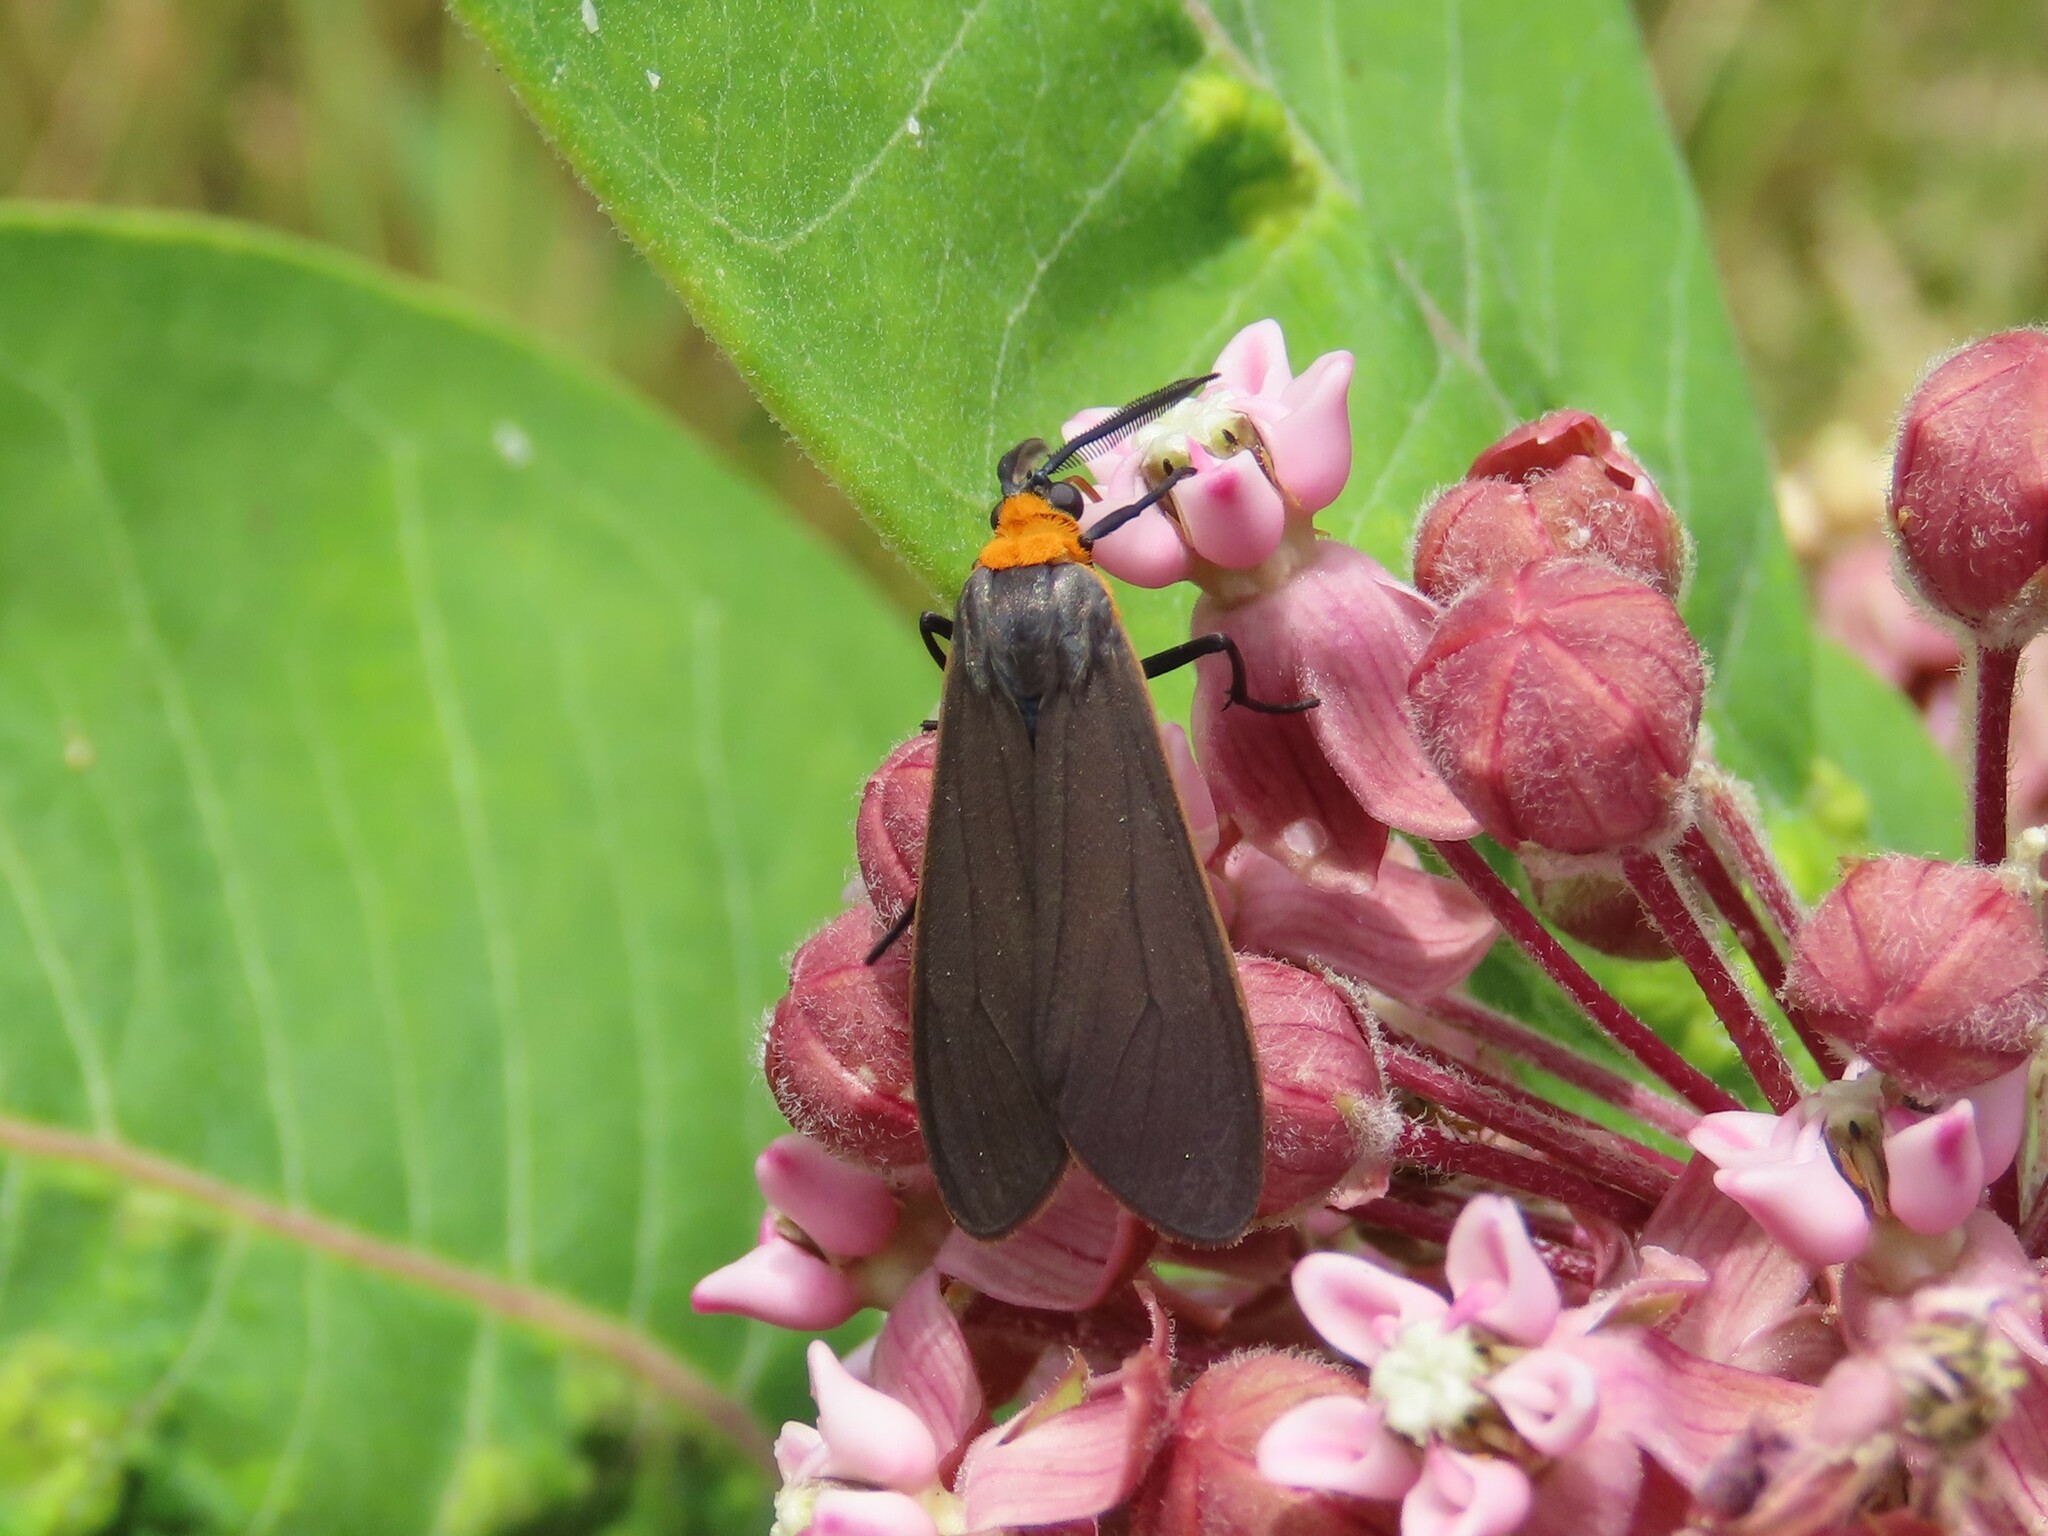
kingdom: Animalia
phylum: Arthropoda
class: Insecta
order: Lepidoptera
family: Erebidae
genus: Cisseps
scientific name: Cisseps fulvicollis
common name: Yellow-collared scape moth
